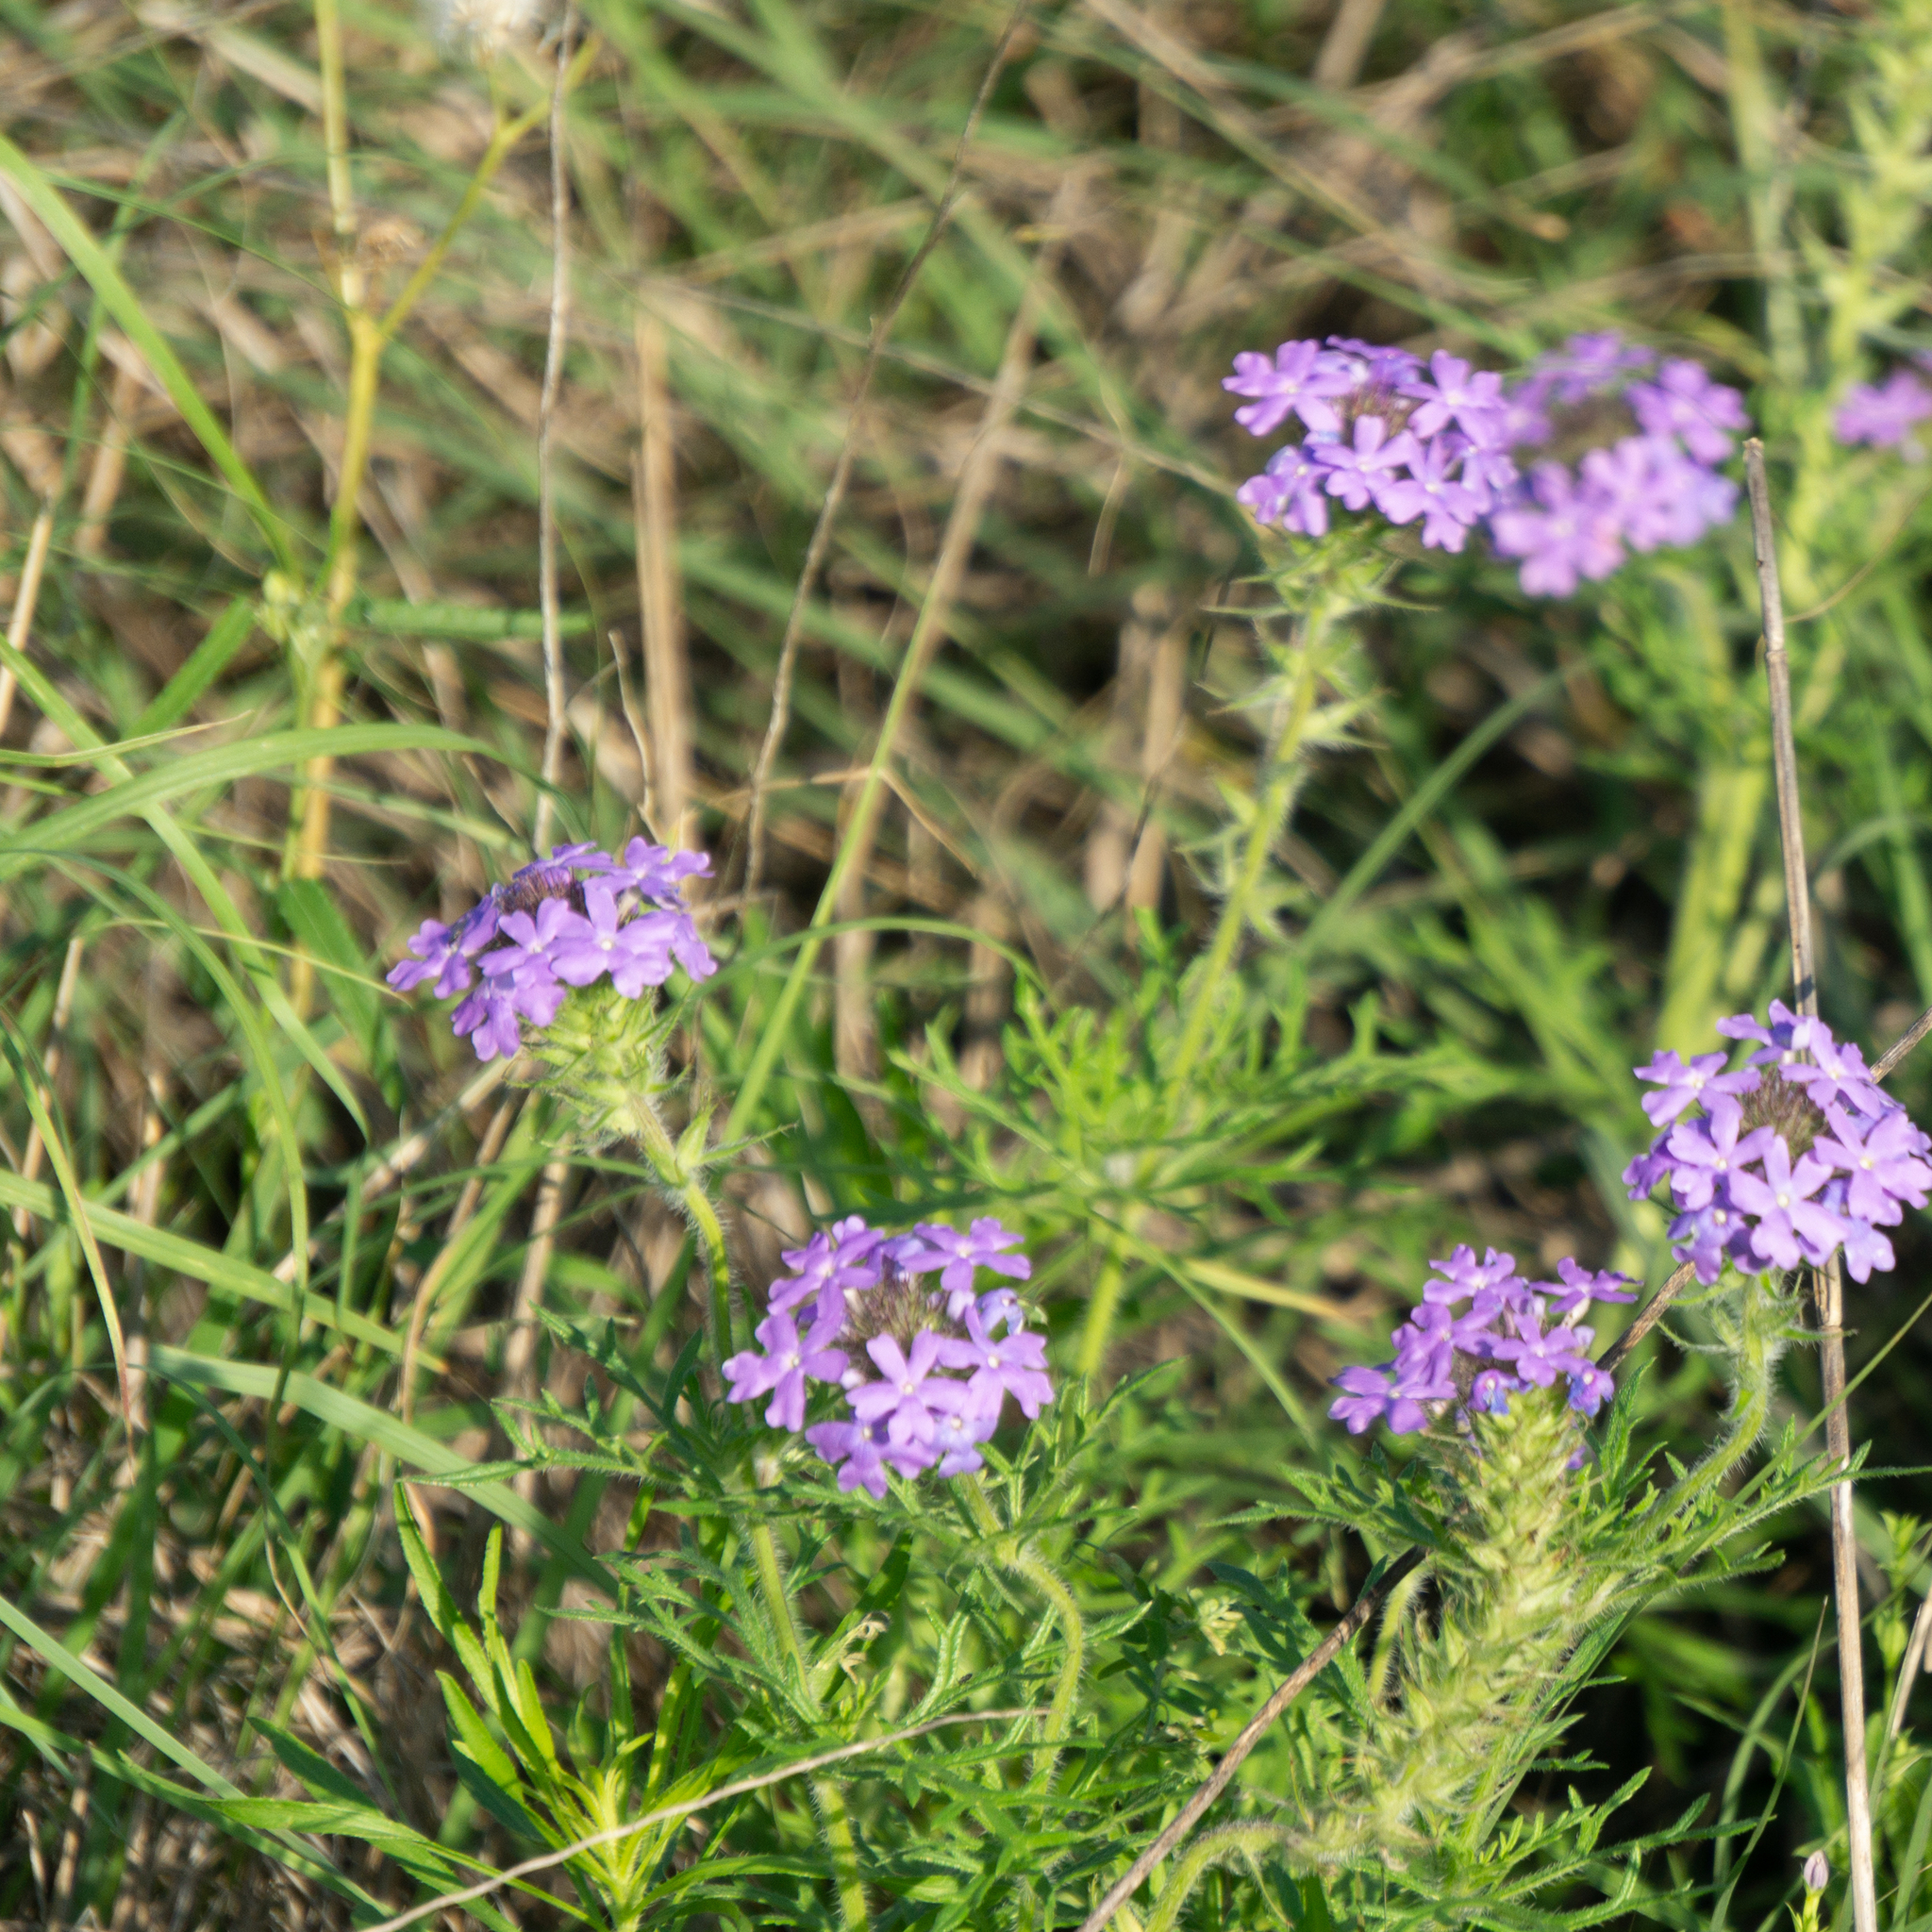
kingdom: Plantae
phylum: Tracheophyta
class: Magnoliopsida
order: Lamiales
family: Verbenaceae
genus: Verbena
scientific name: Verbena bipinnatifida
